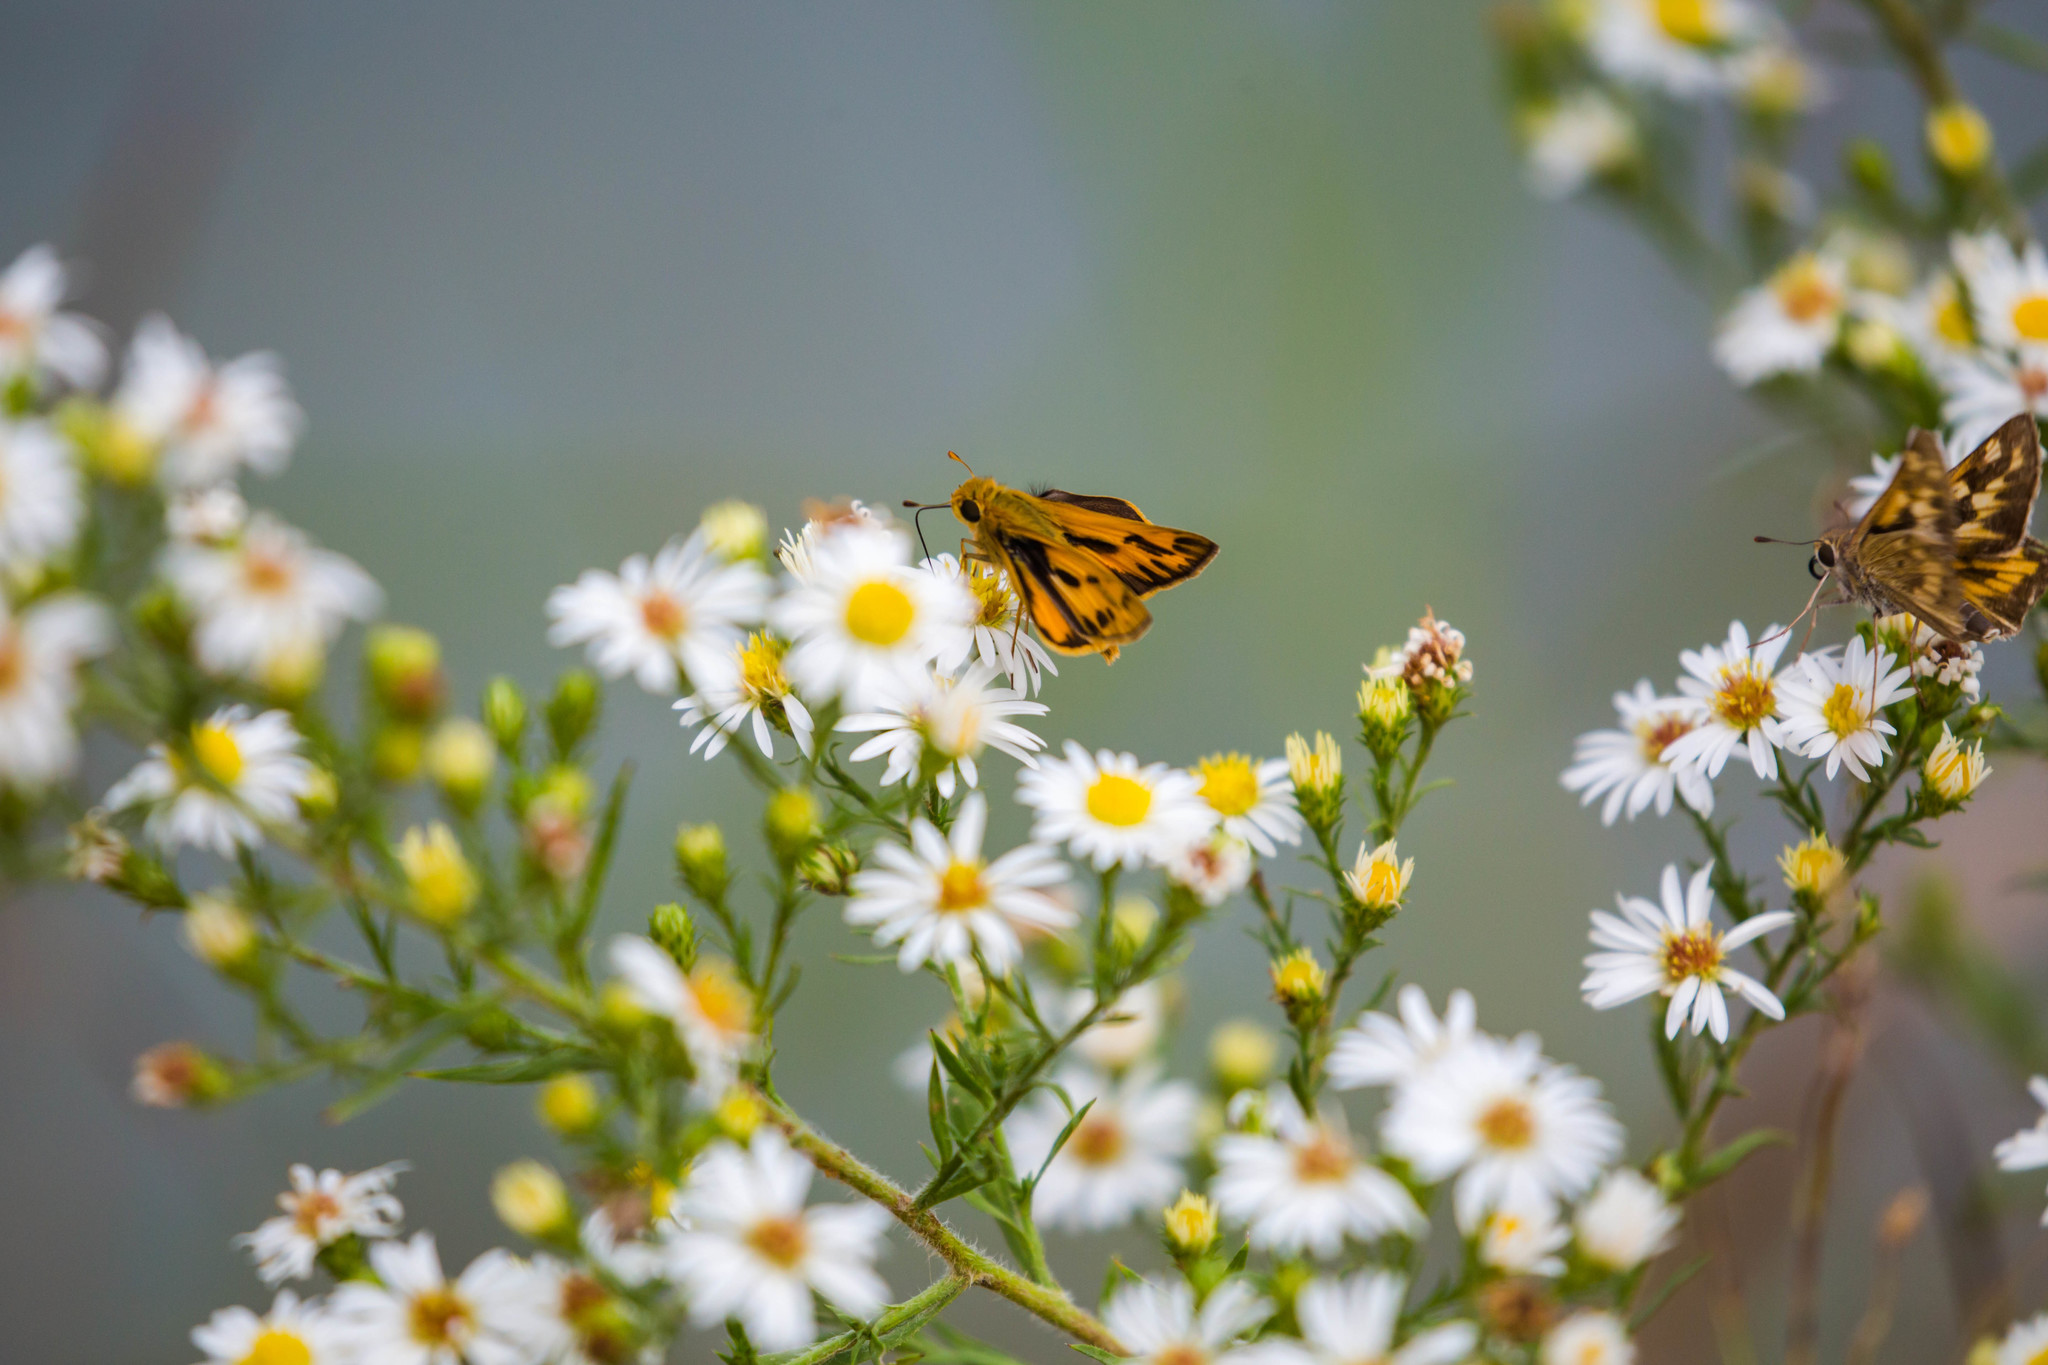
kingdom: Animalia
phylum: Arthropoda
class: Insecta
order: Lepidoptera
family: Hesperiidae
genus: Hylephila
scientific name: Hylephila phyleus
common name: Fiery skipper
